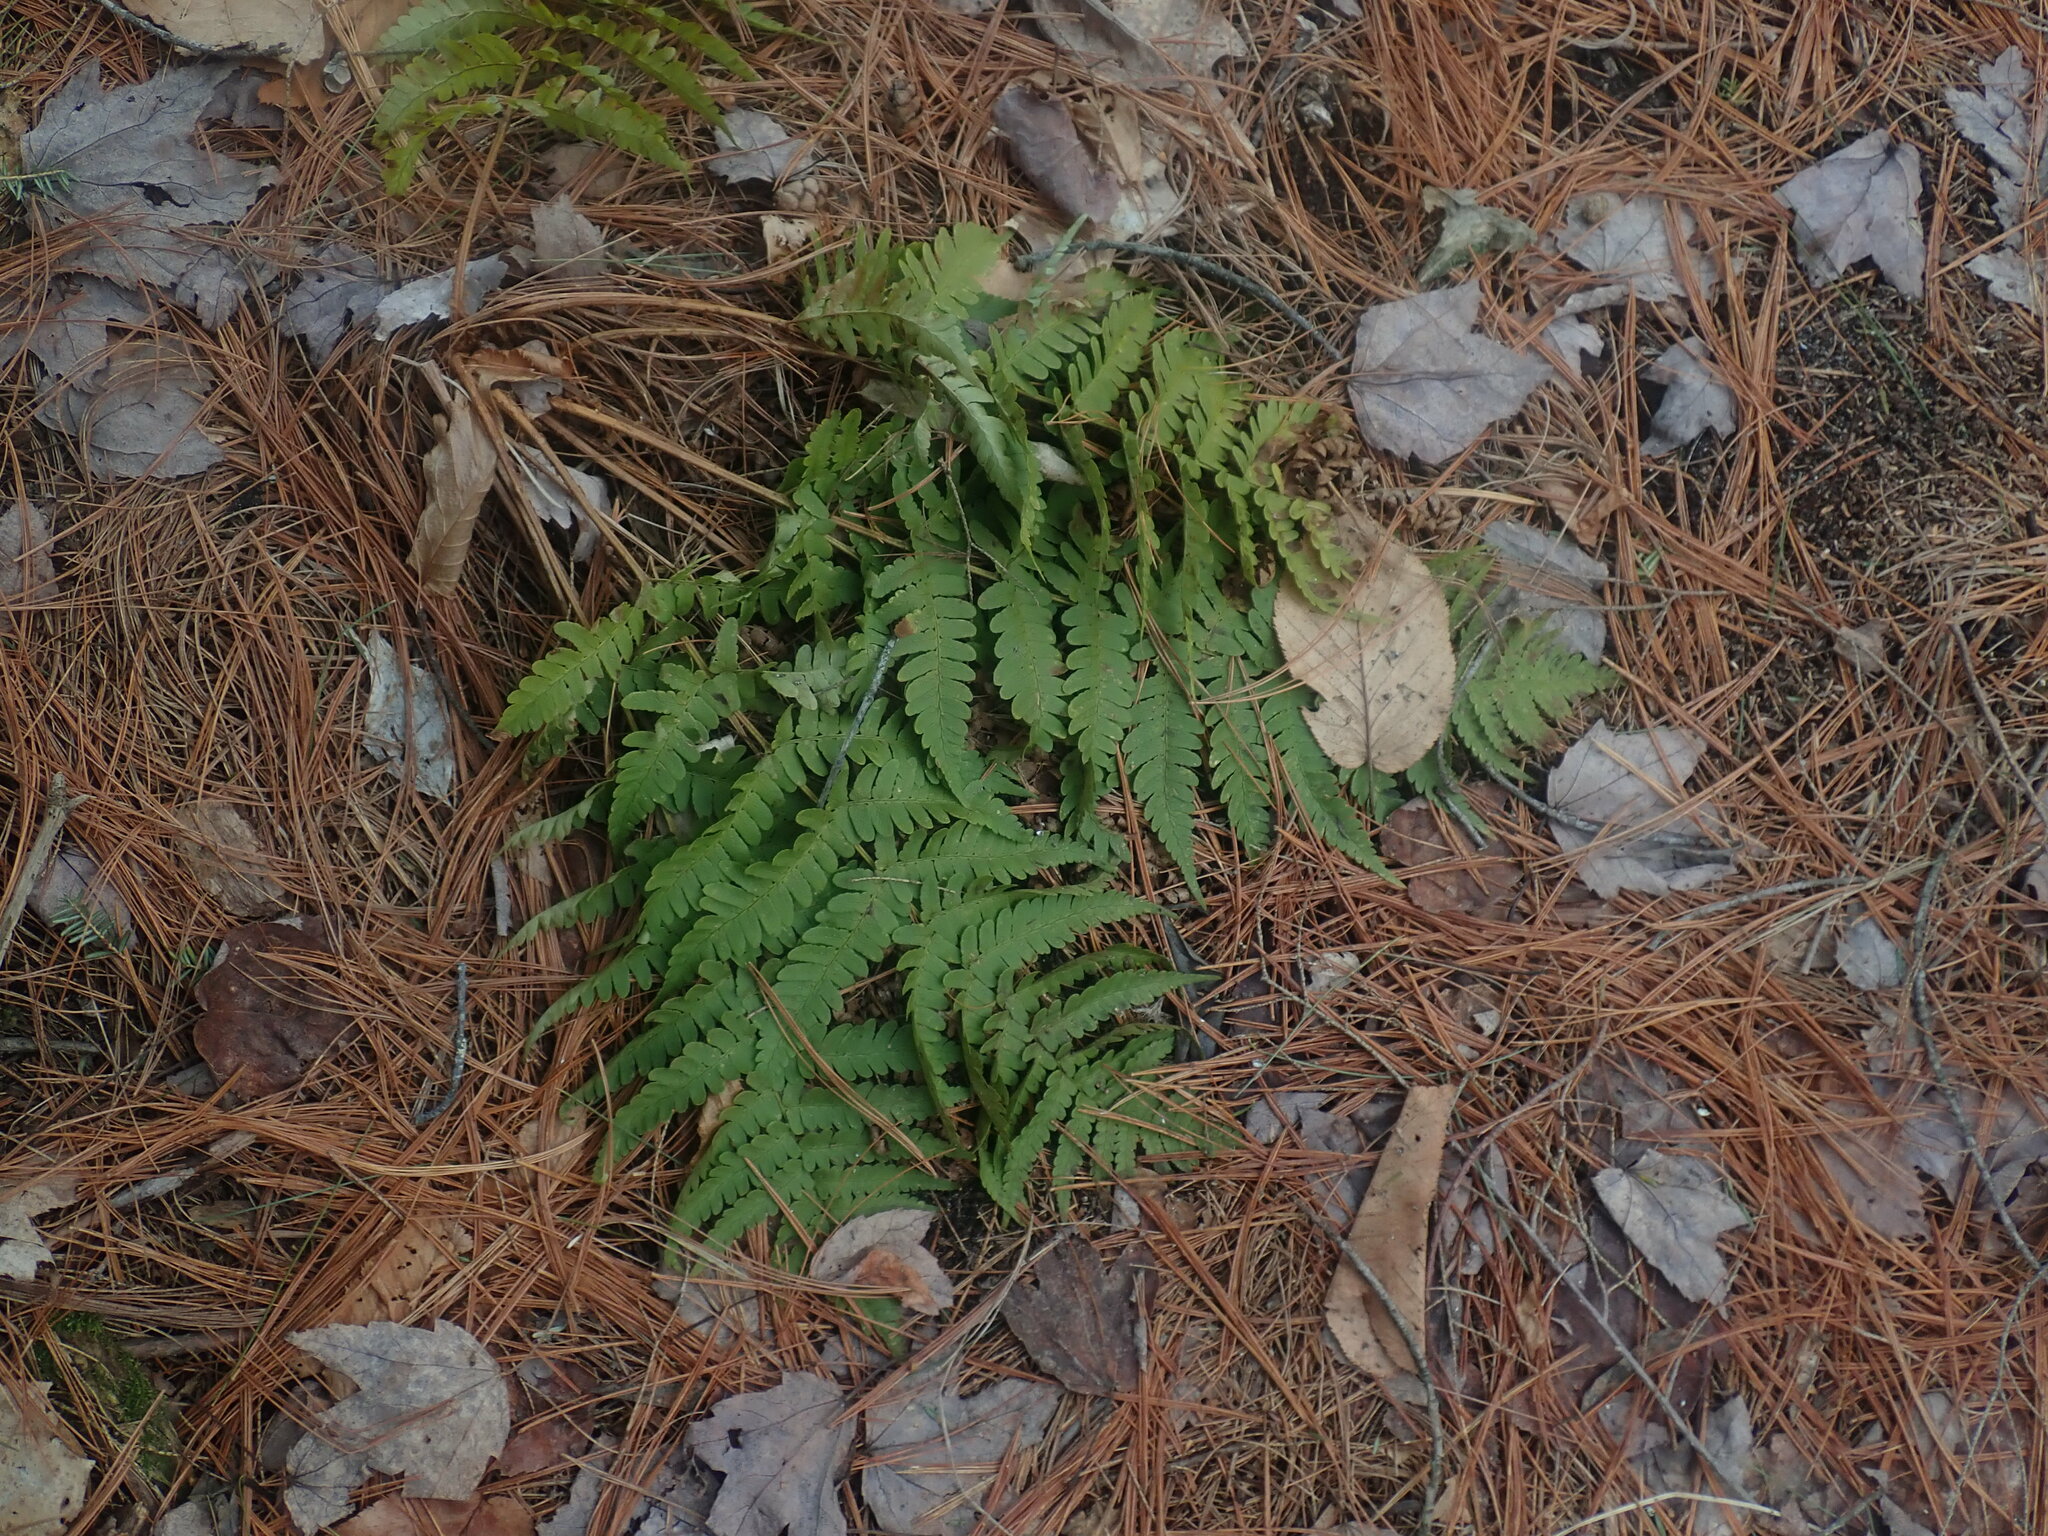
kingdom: Plantae
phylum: Tracheophyta
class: Polypodiopsida
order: Polypodiales
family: Dryopteridaceae
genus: Dryopteris
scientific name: Dryopteris marginalis
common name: Marginal wood fern
